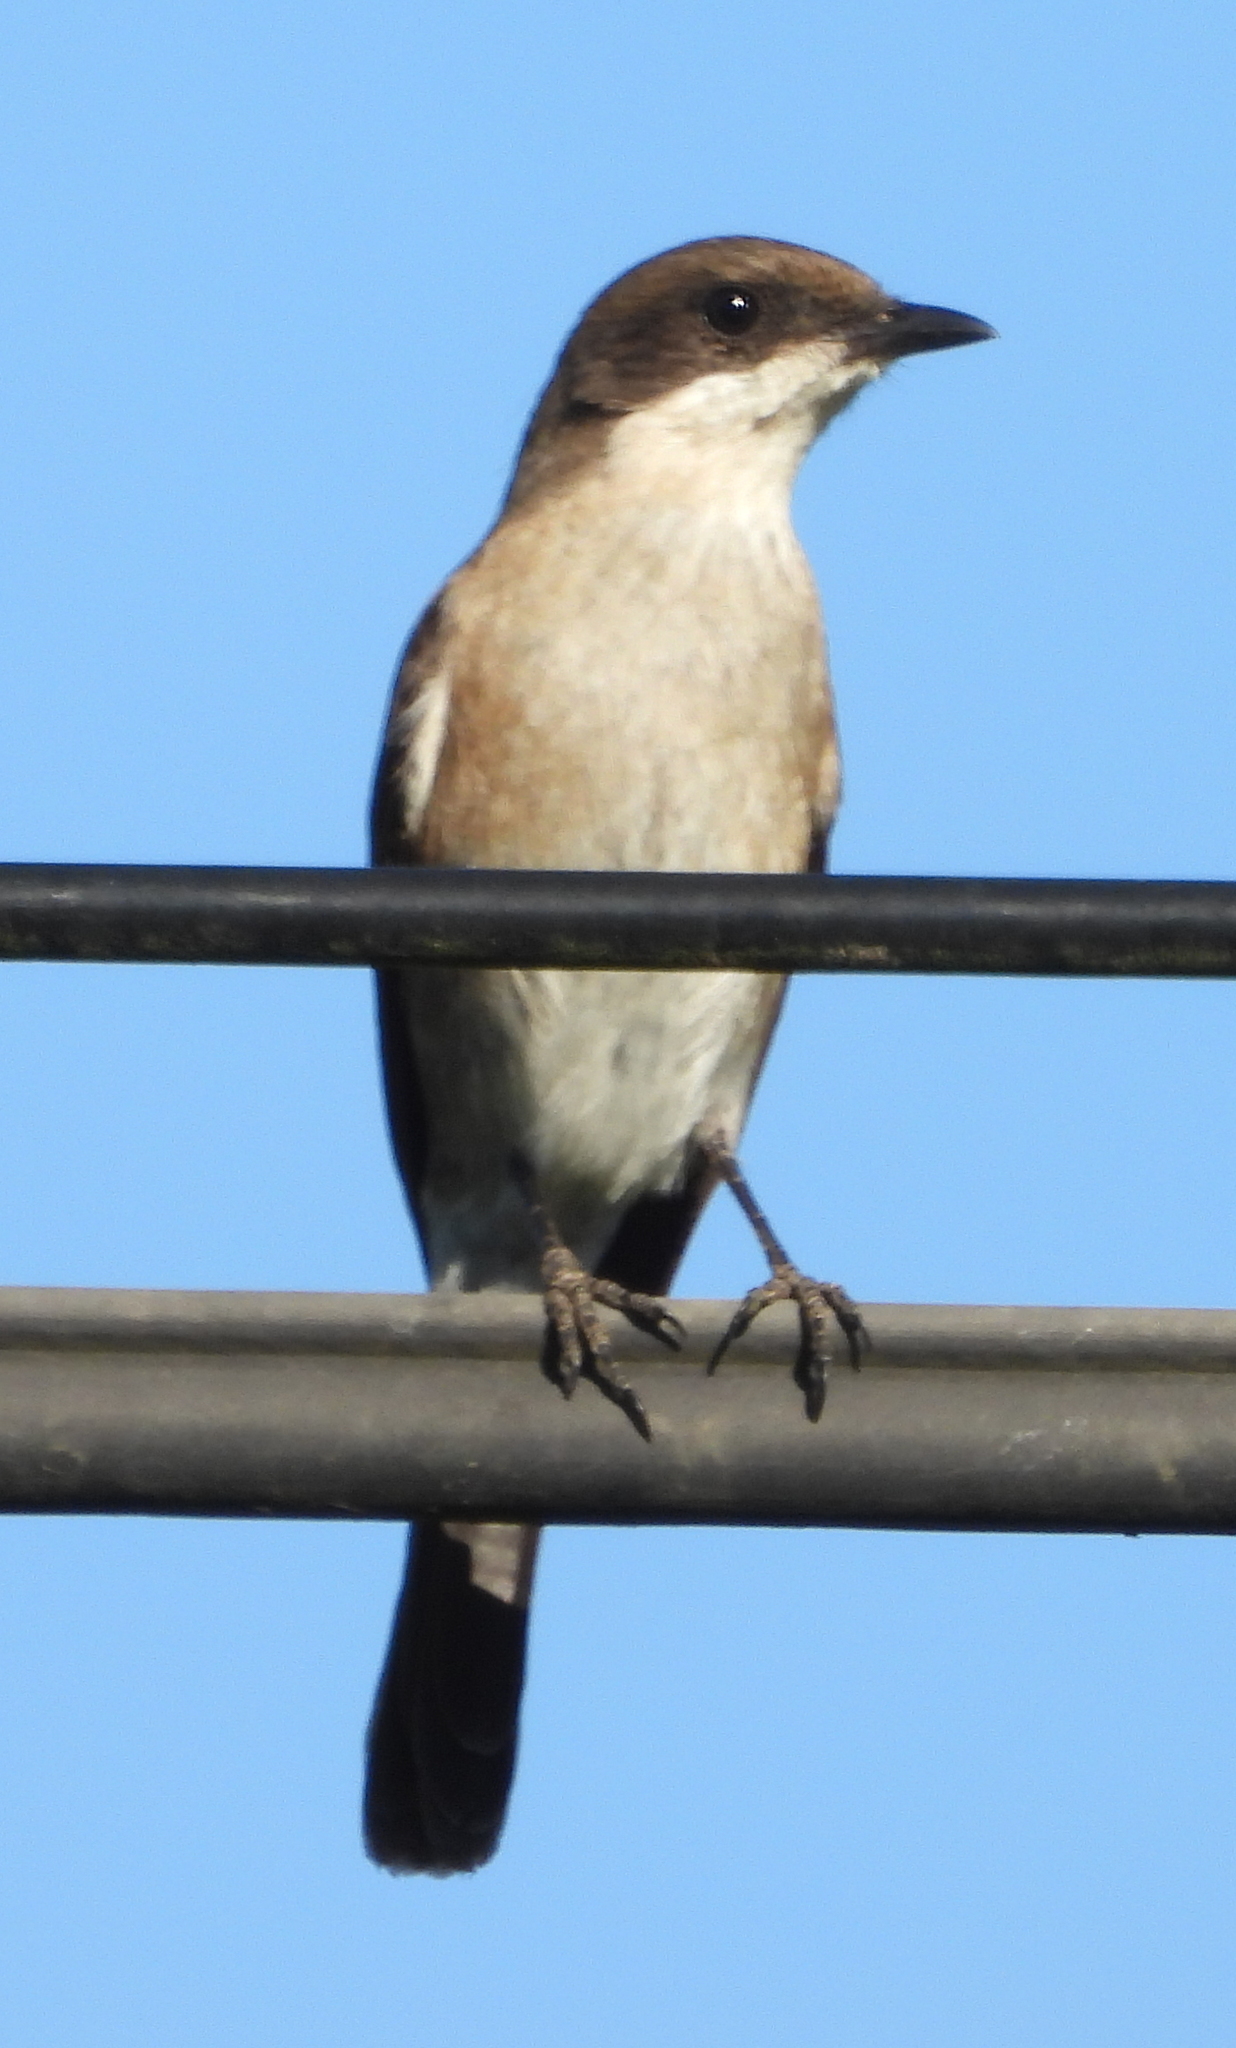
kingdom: Animalia
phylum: Chordata
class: Aves
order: Passeriformes
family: Muscicapidae
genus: Sigelus
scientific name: Sigelus silens
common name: Fiscal flycatcher
